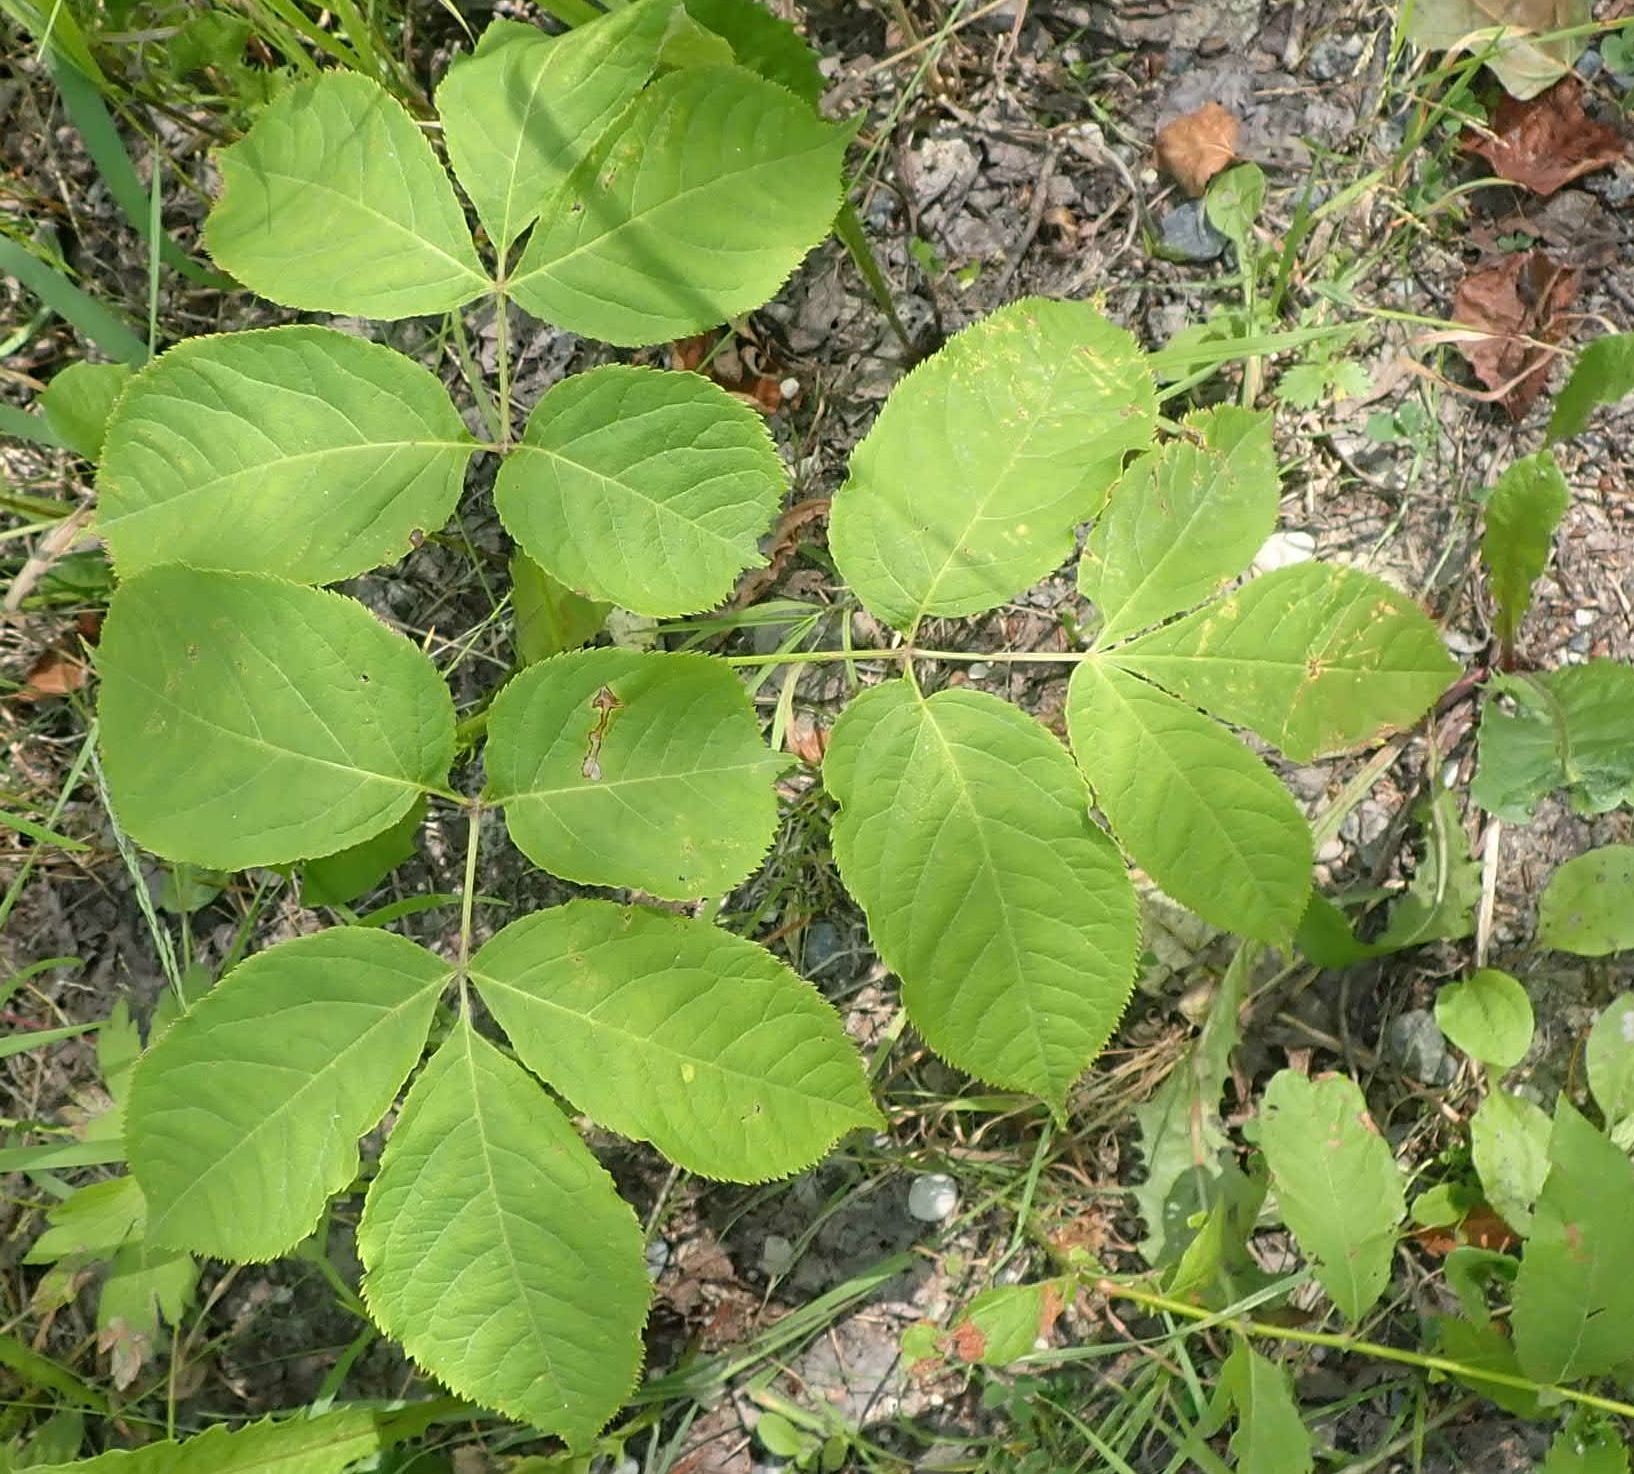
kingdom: Plantae
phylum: Tracheophyta
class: Magnoliopsida
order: Apiales
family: Araliaceae
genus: Aralia
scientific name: Aralia nudicaulis
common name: Wild sarsaparilla
